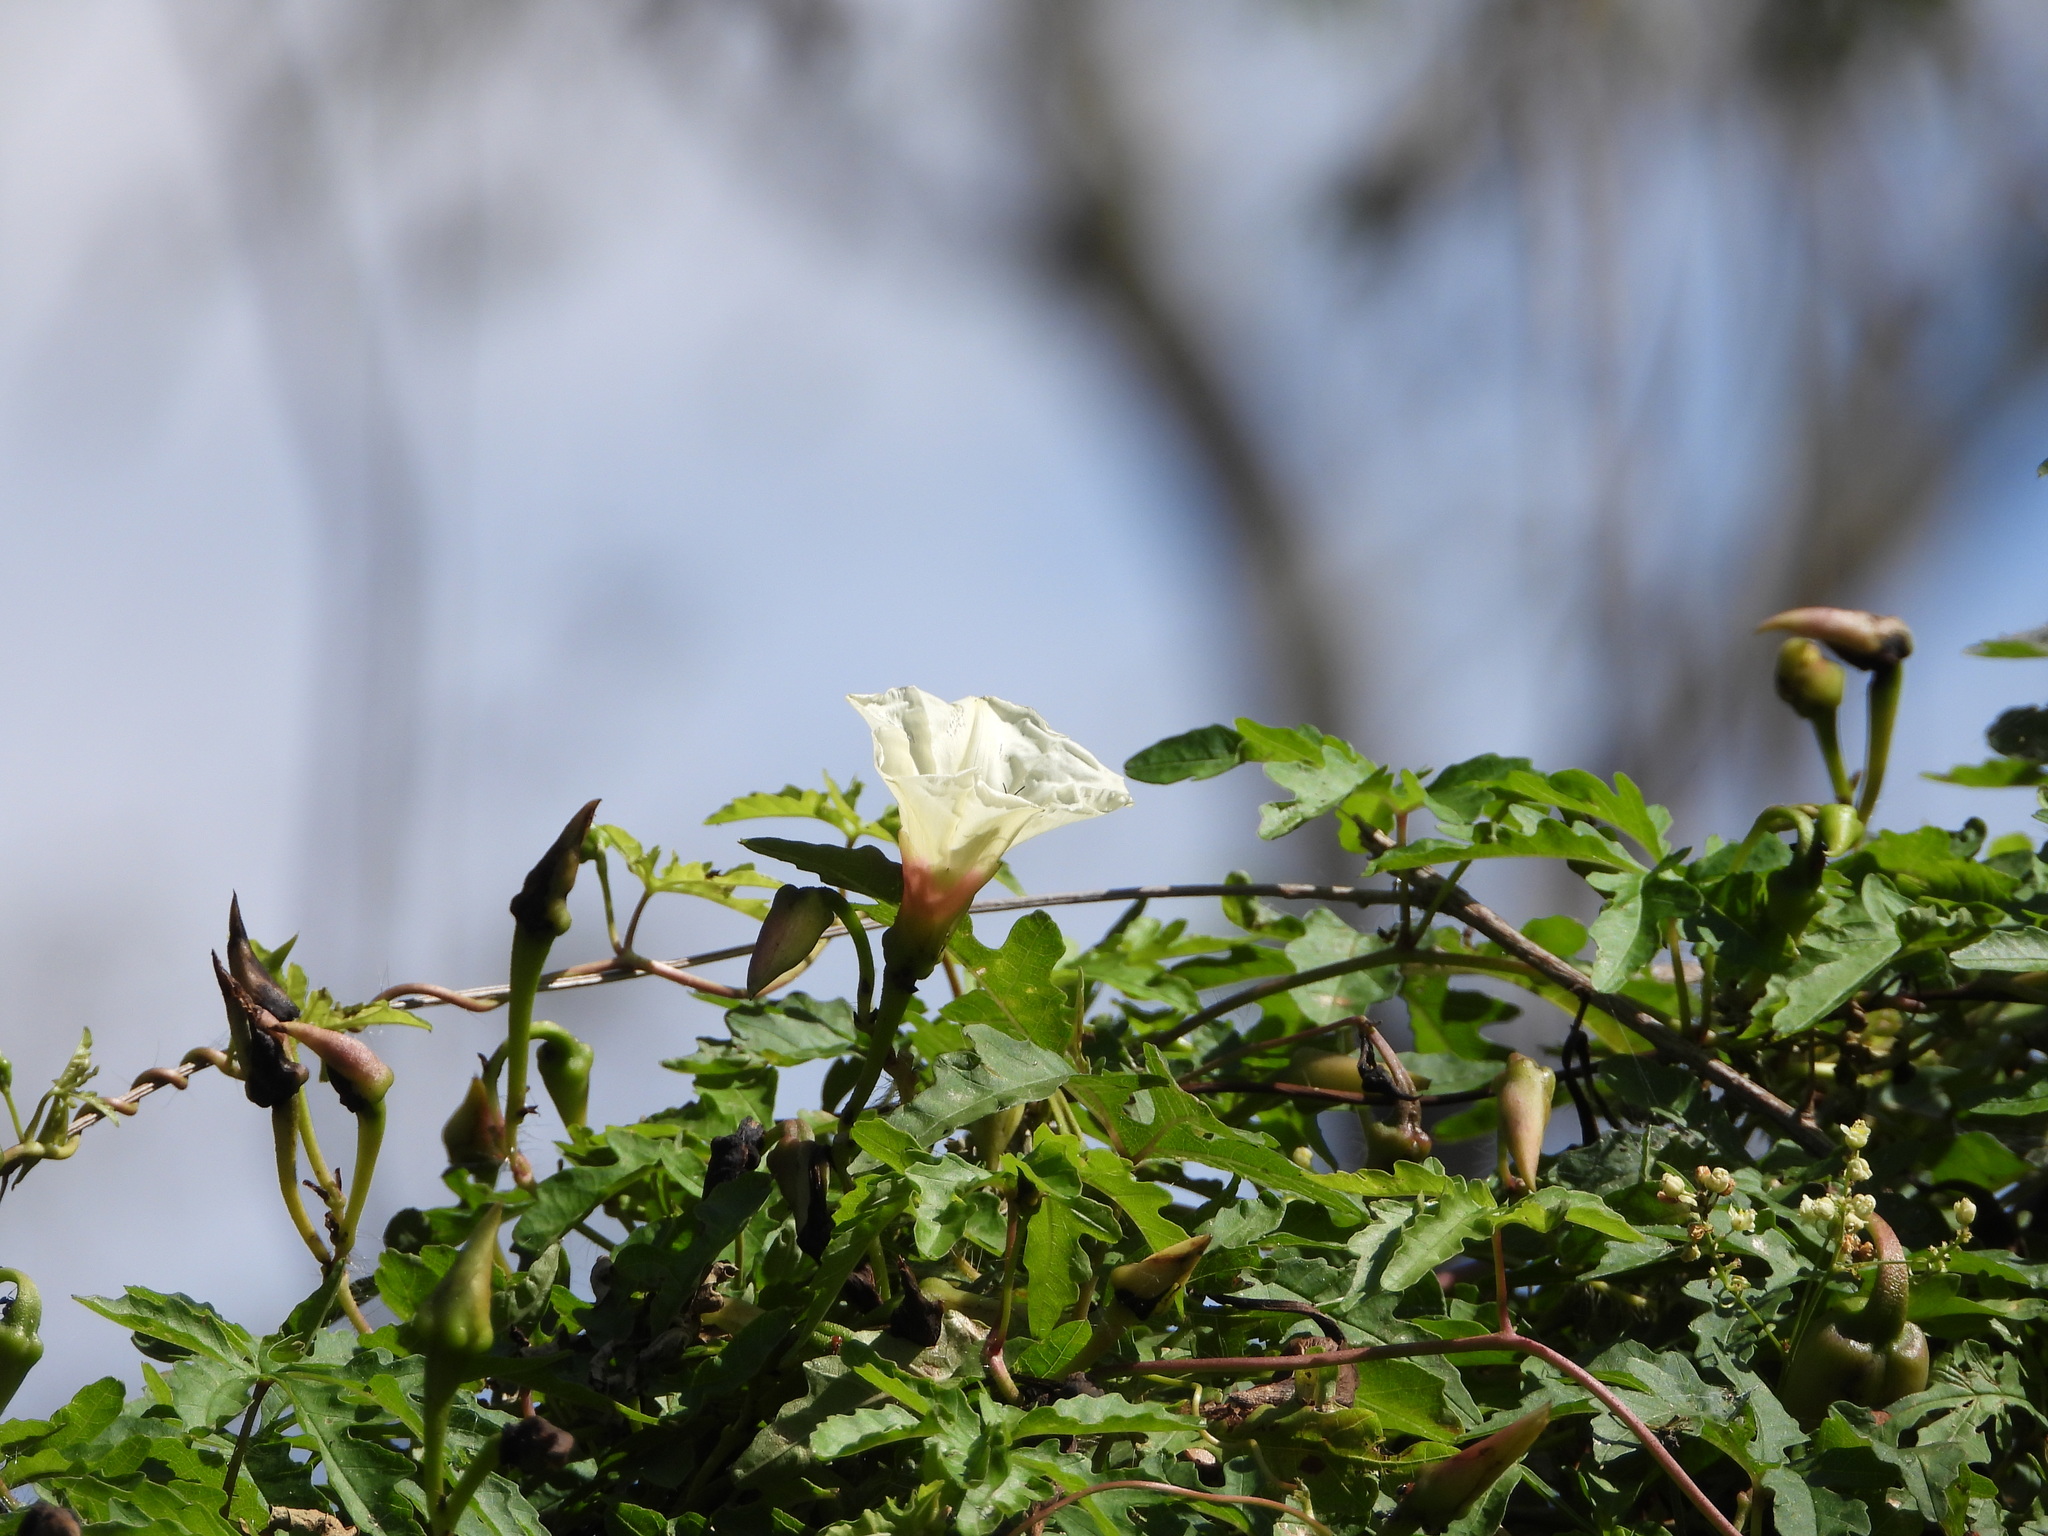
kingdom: Plantae
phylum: Tracheophyta
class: Magnoliopsida
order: Solanales
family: Convolvulaceae
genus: Distimake
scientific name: Distimake dissectus
